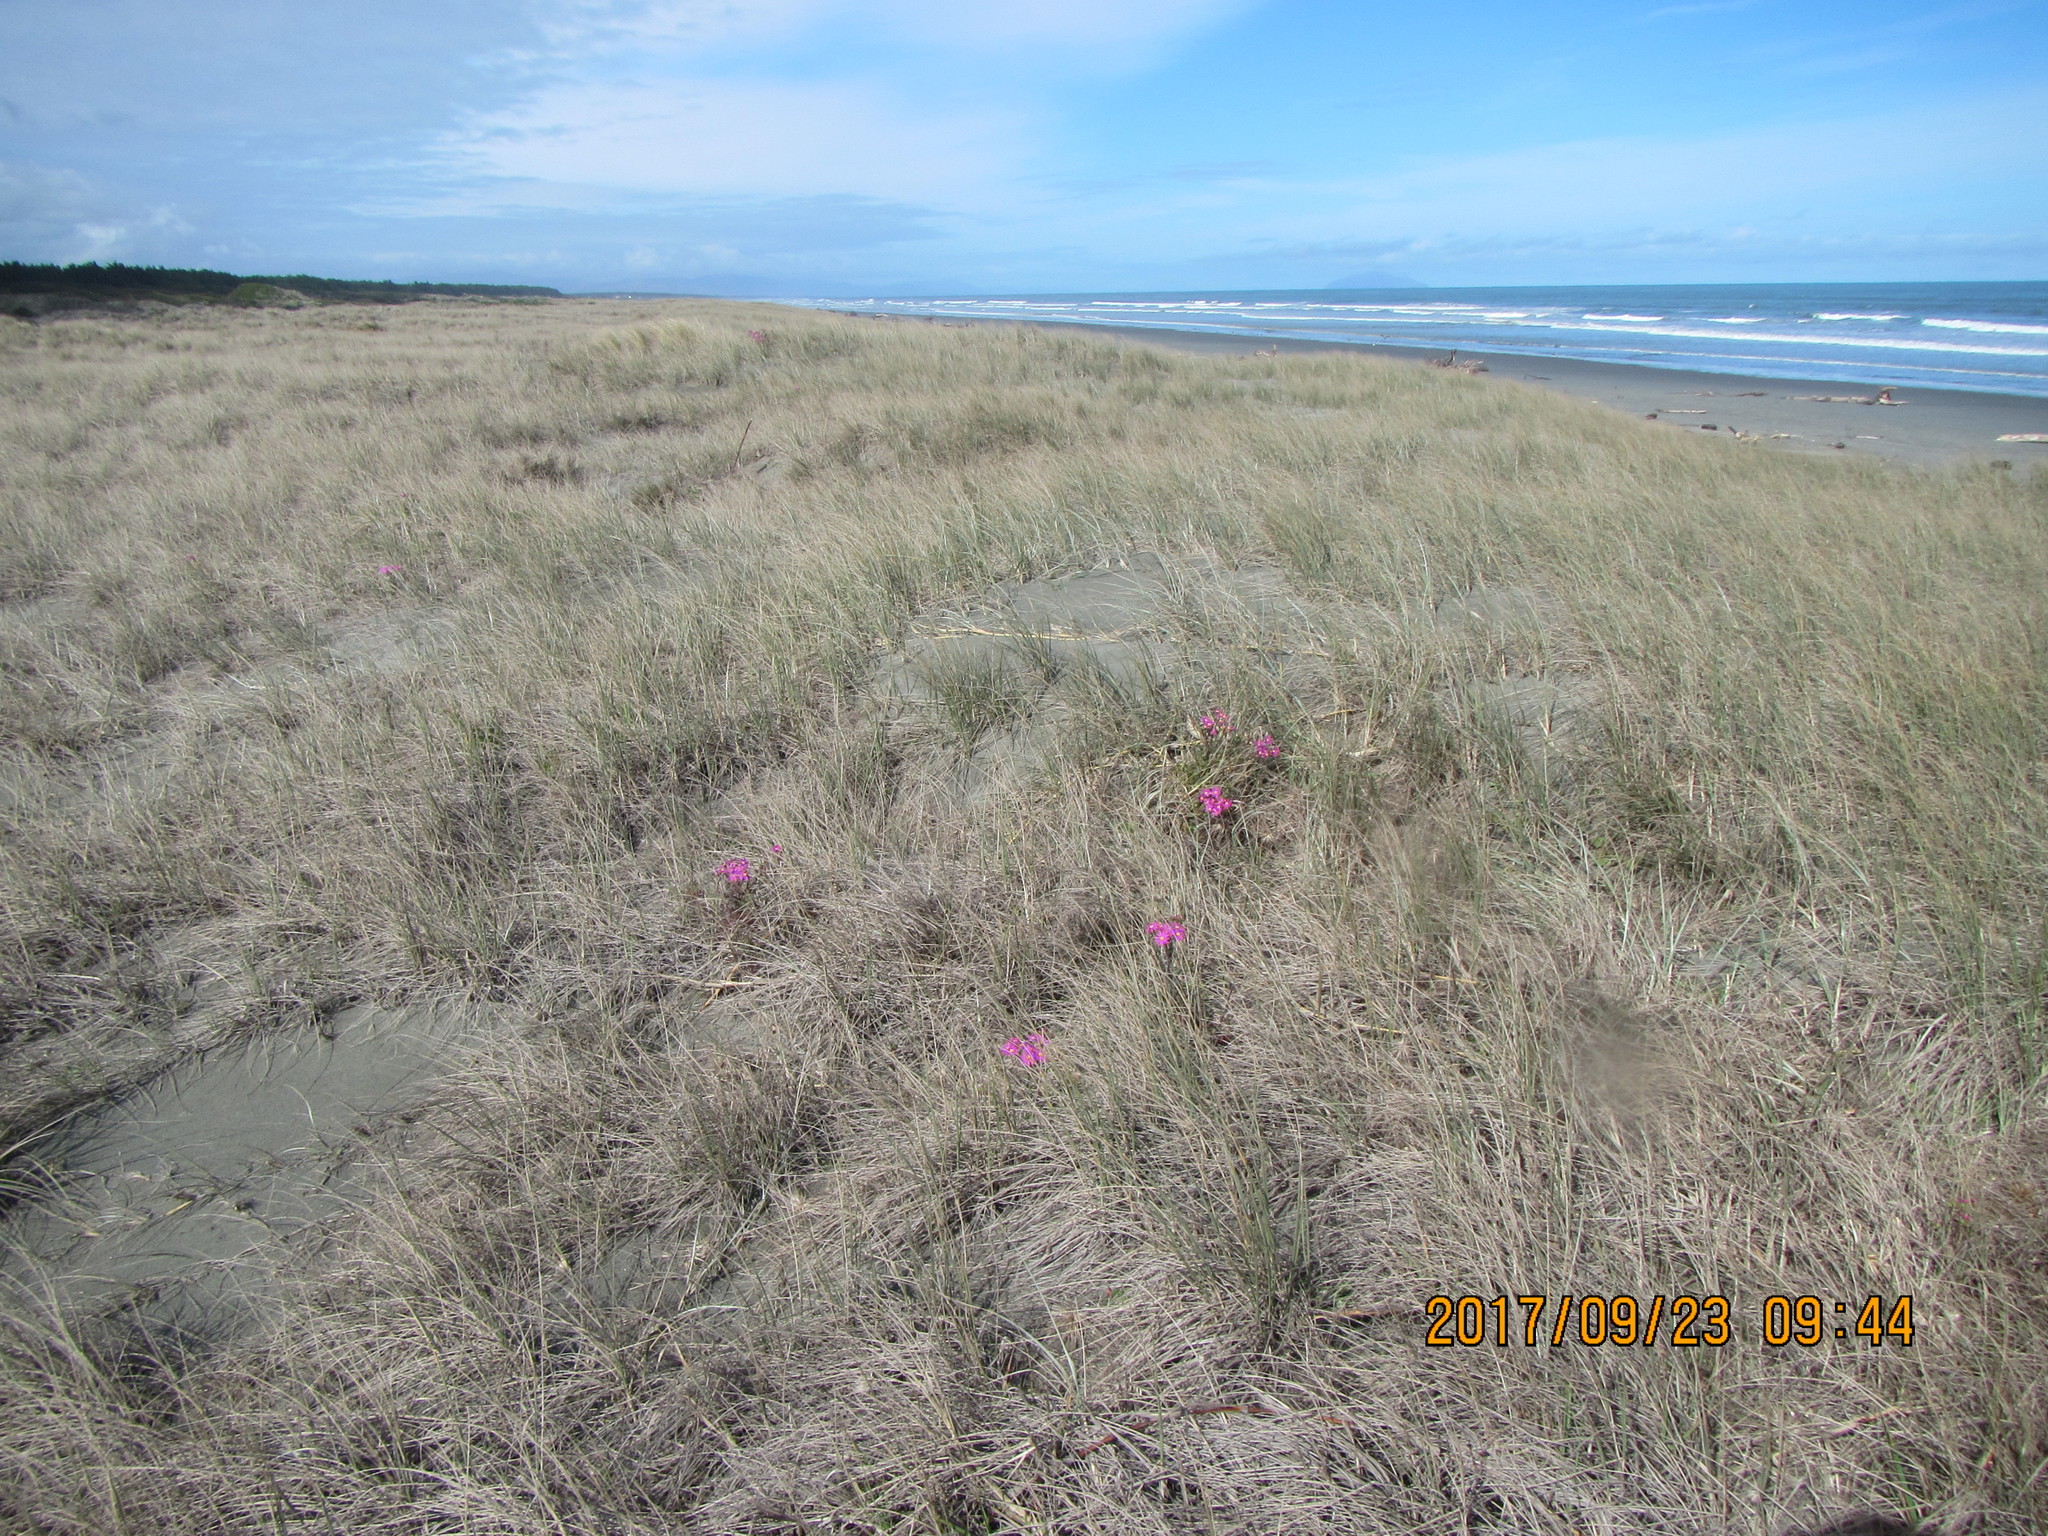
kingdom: Plantae
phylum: Tracheophyta
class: Magnoliopsida
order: Asterales
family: Asteraceae
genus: Senecio
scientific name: Senecio elegans
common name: Purple groundsel
